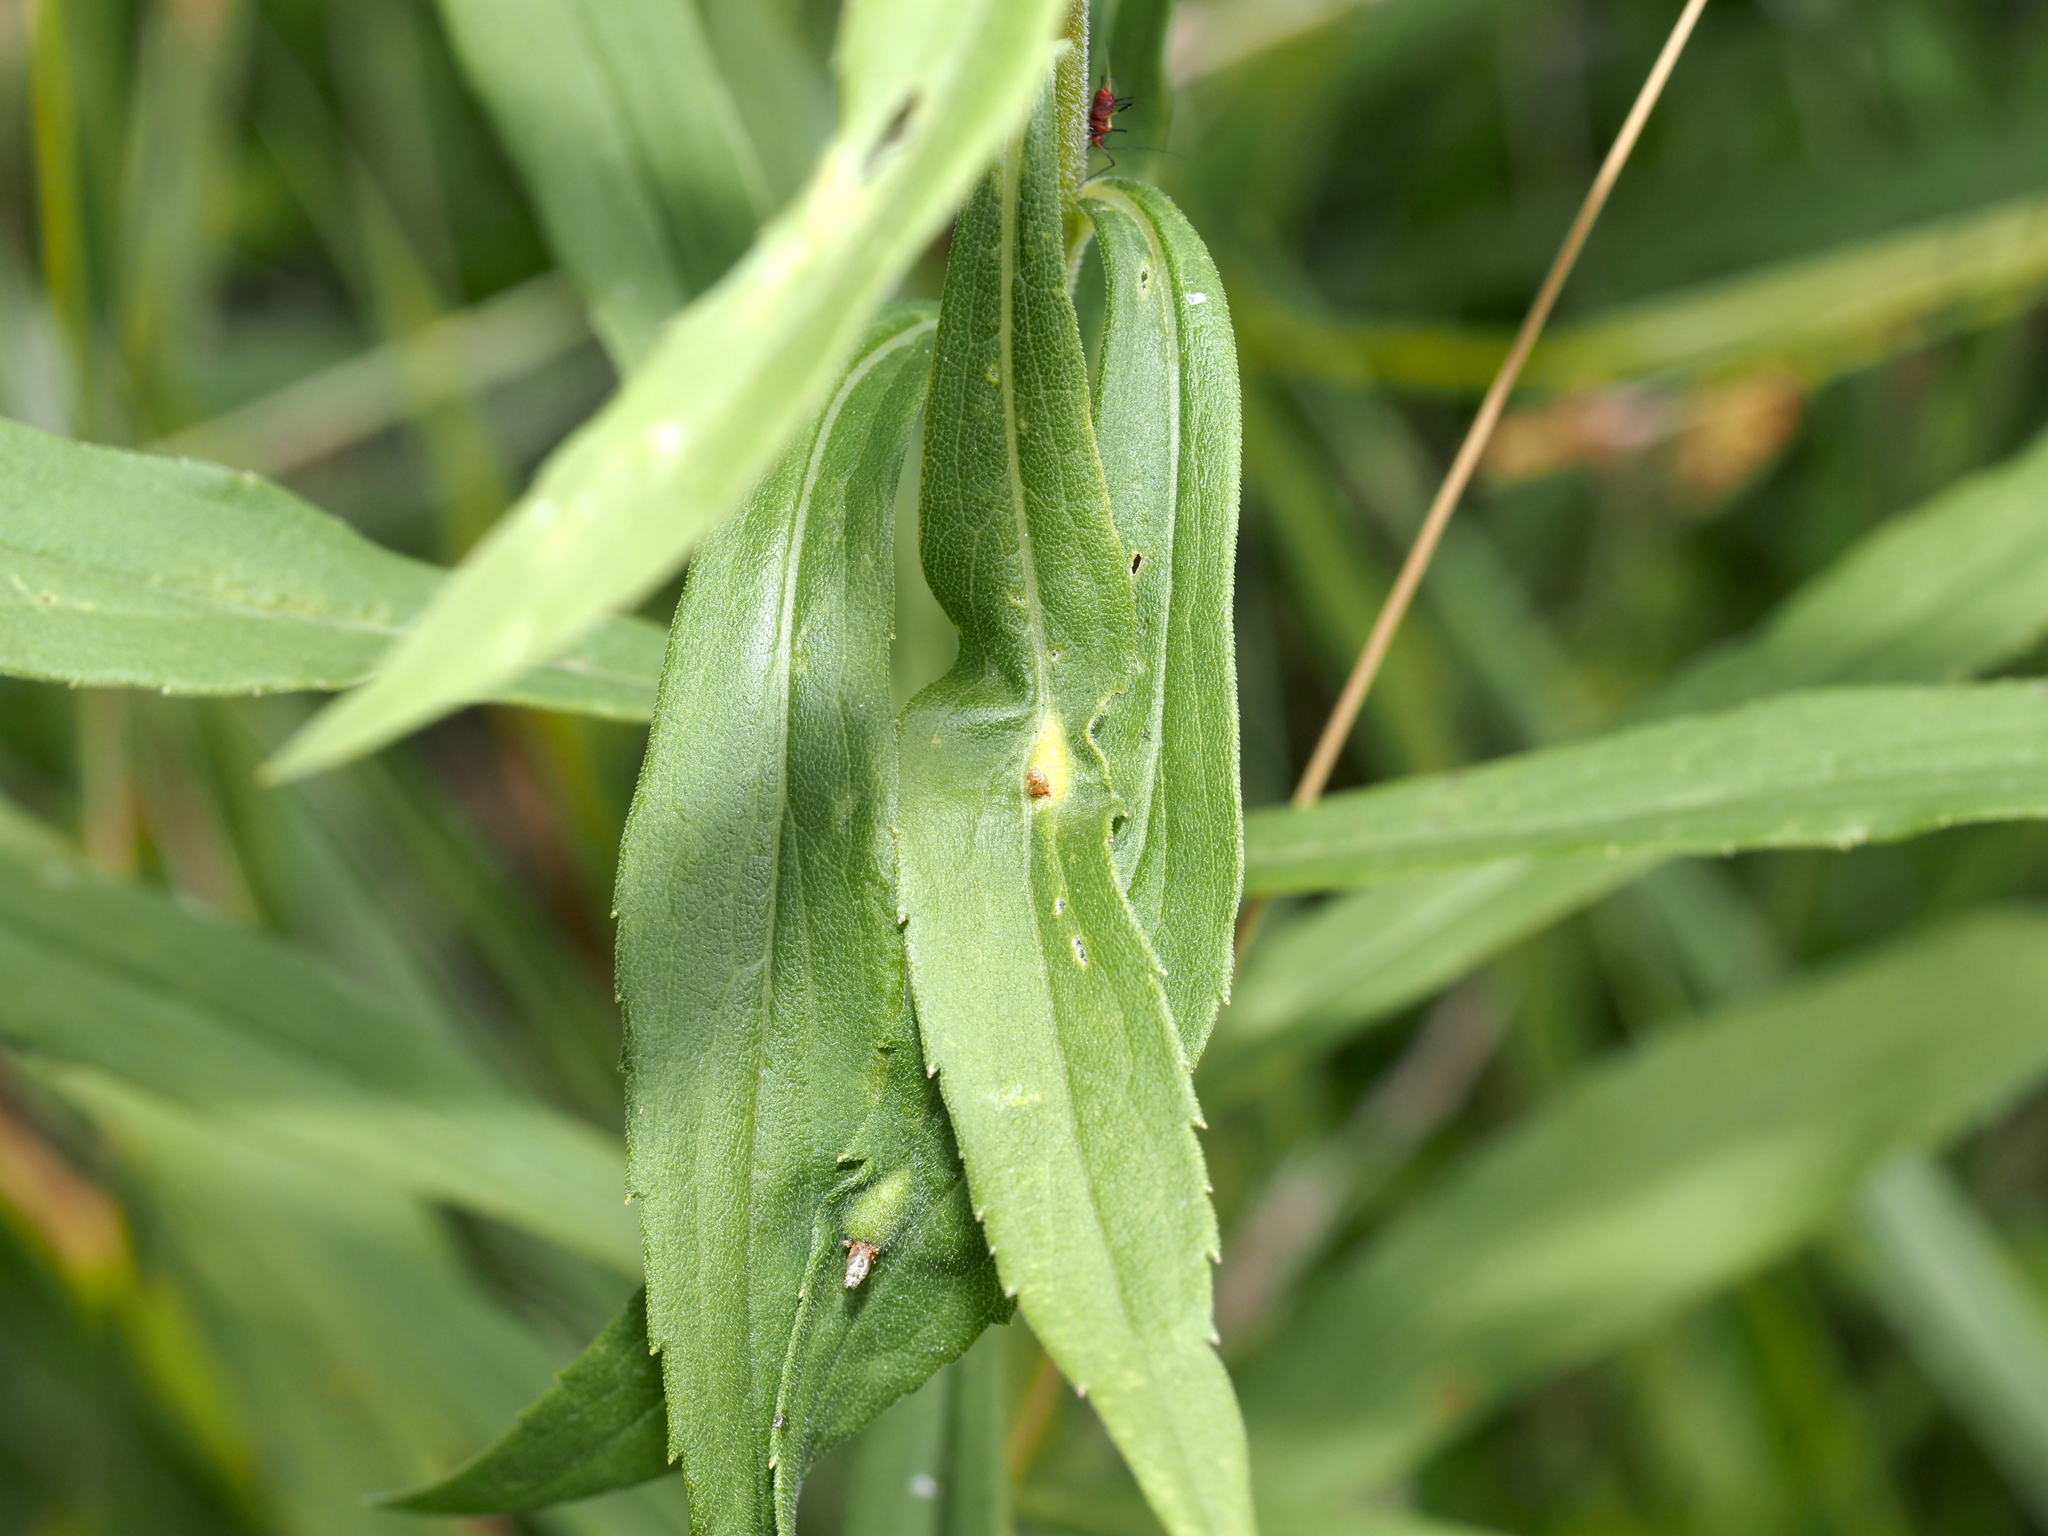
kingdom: Animalia
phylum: Arthropoda
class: Insecta
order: Diptera
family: Cecidomyiidae
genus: Asphondylia
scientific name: Asphondylia solidaginis
